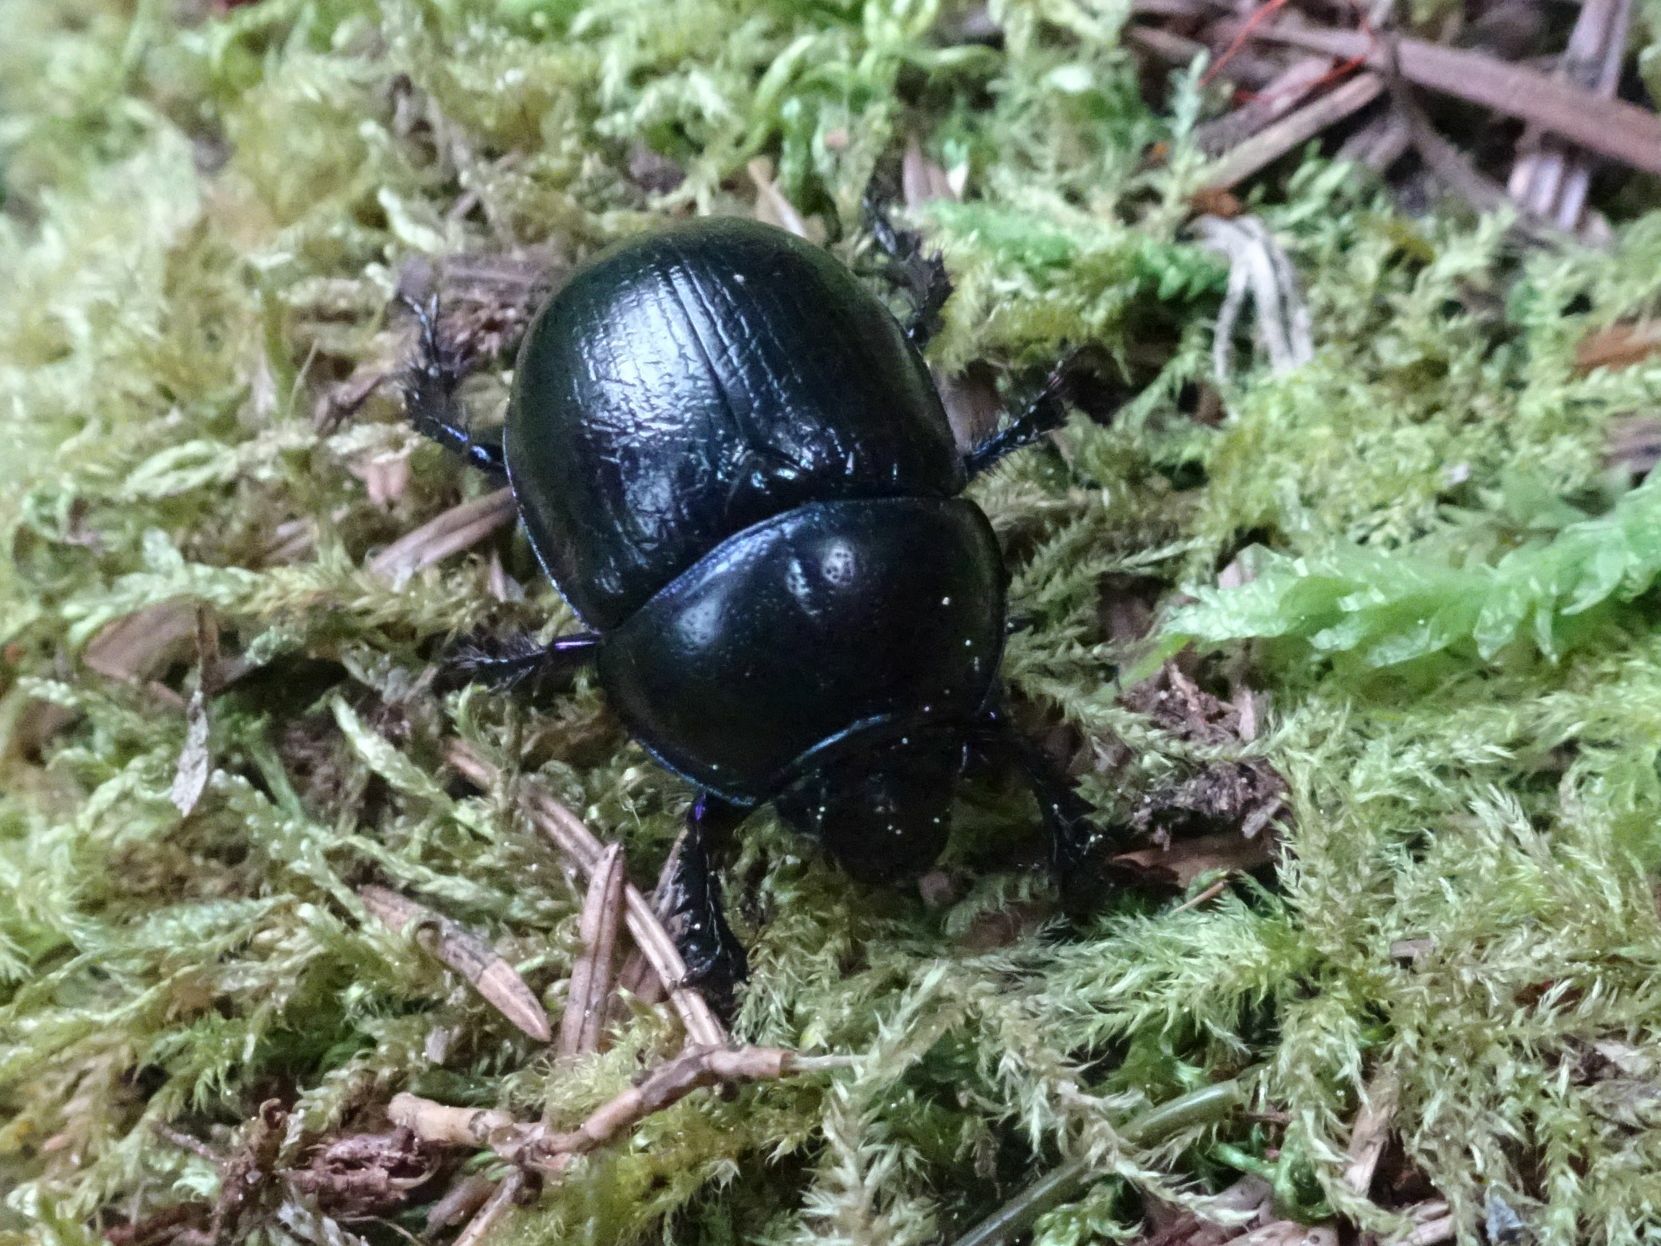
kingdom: Animalia
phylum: Arthropoda
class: Insecta
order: Coleoptera
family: Geotrupidae
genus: Anoplotrupes
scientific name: Anoplotrupes stercorosus
